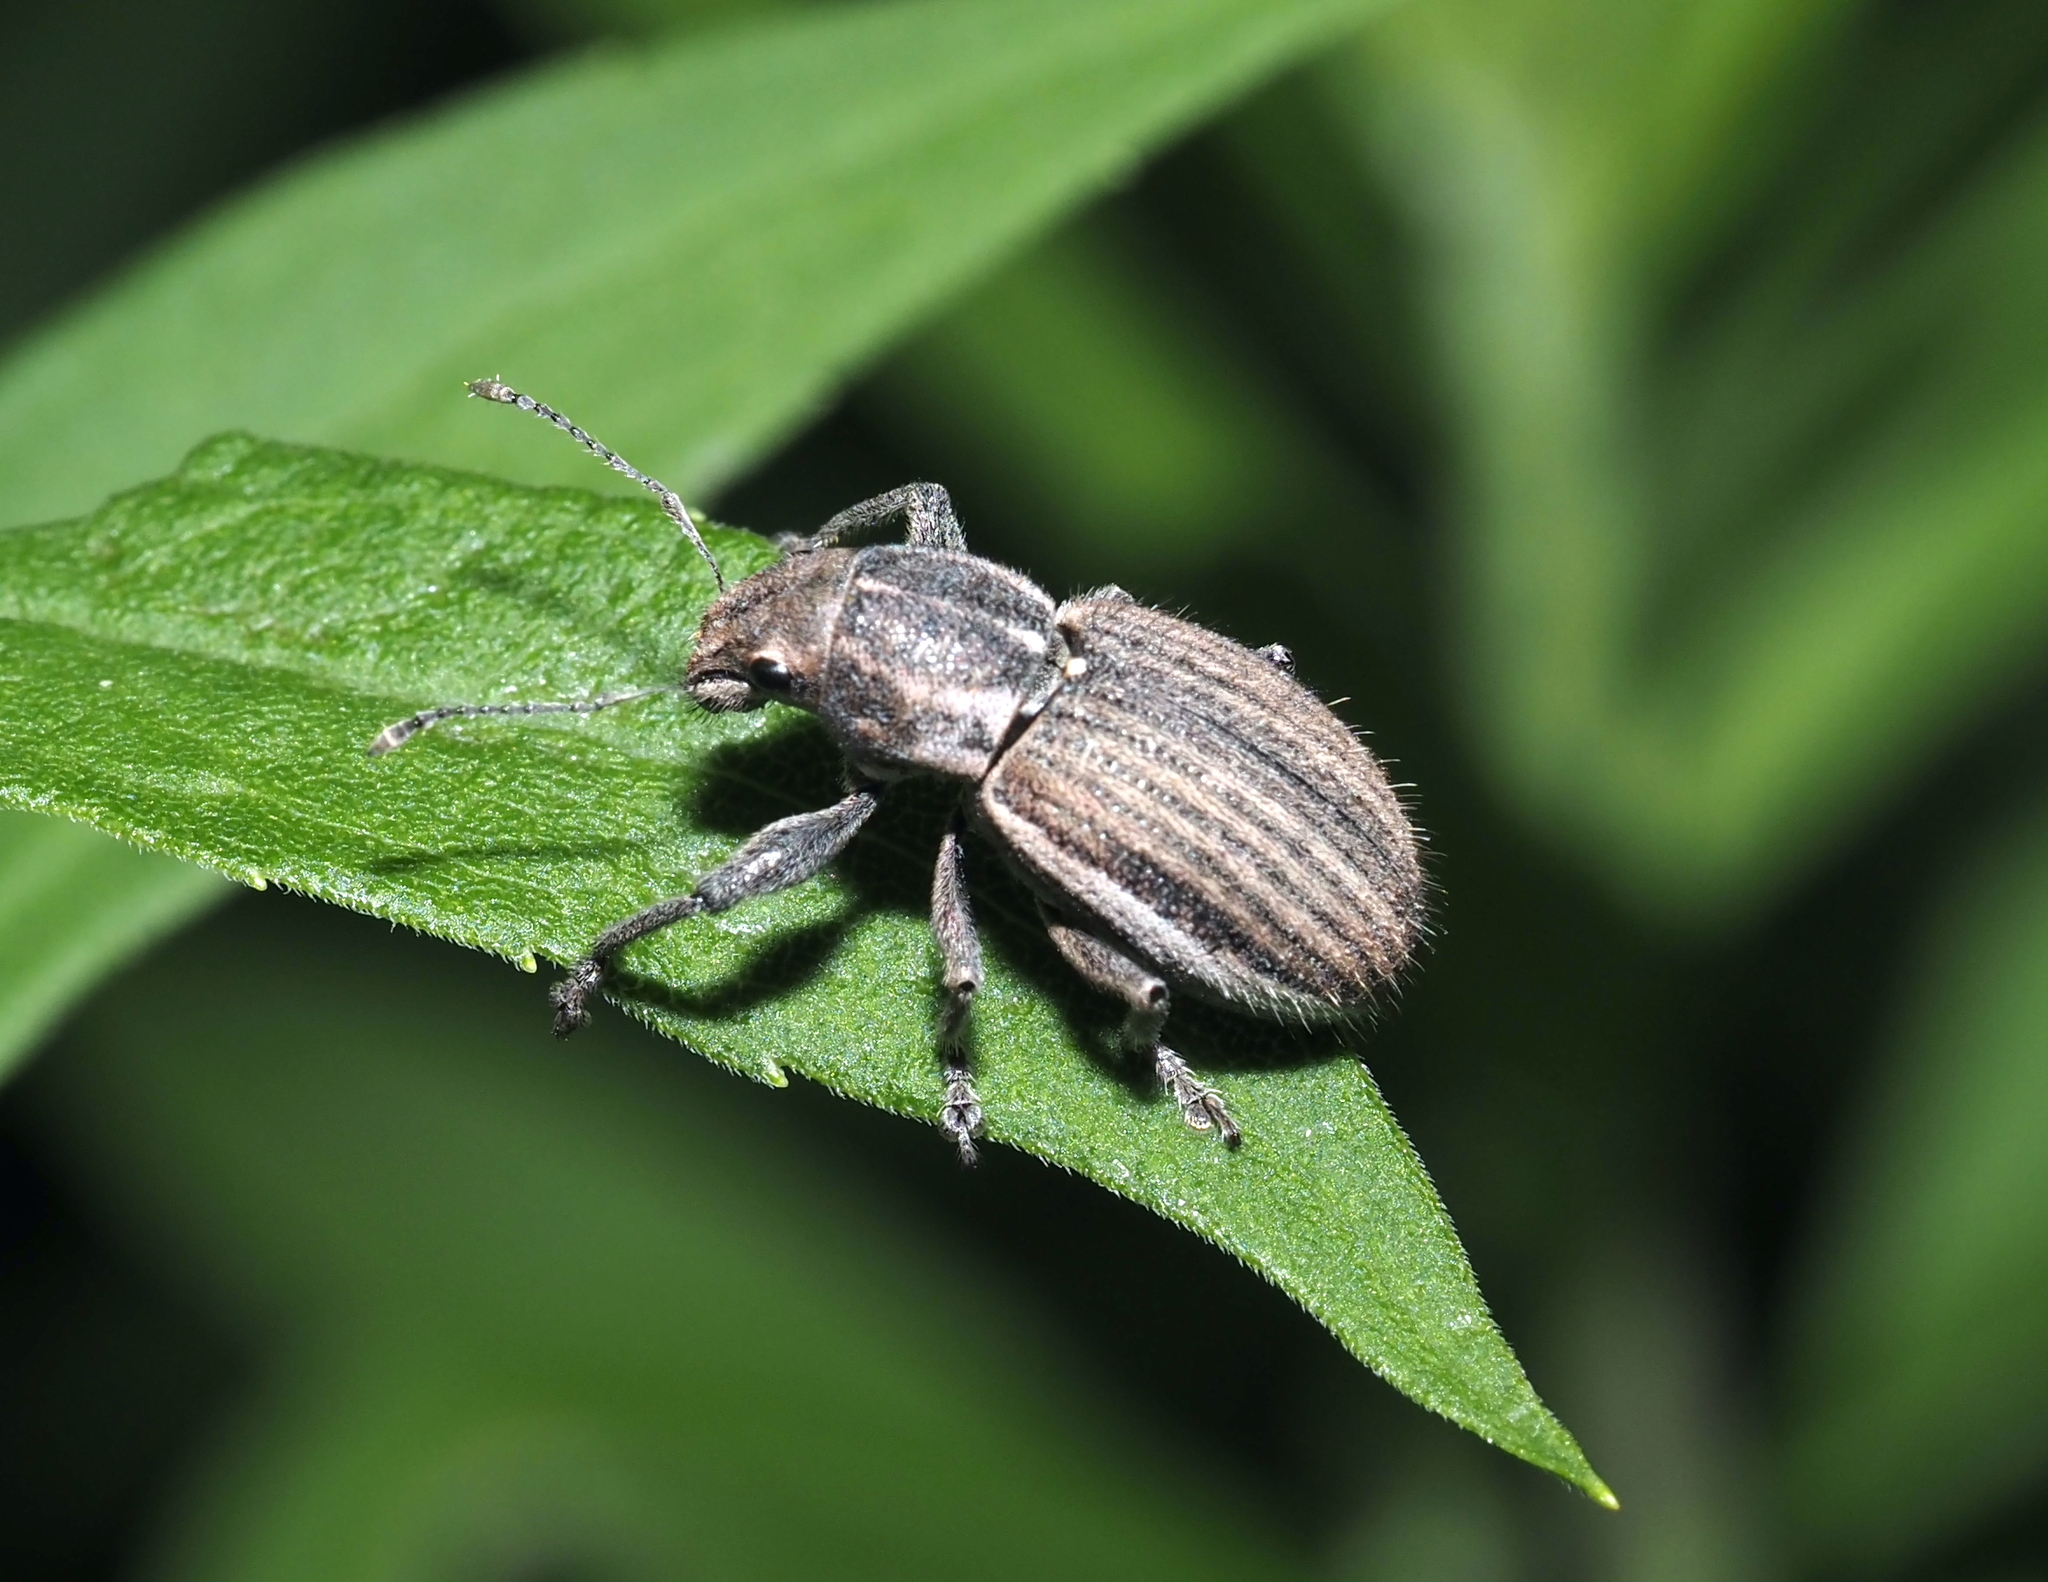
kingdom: Animalia
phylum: Arthropoda
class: Insecta
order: Coleoptera
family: Curculionidae
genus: Naupactus
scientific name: Naupactus leucoloma
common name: Whitefringed beetle
